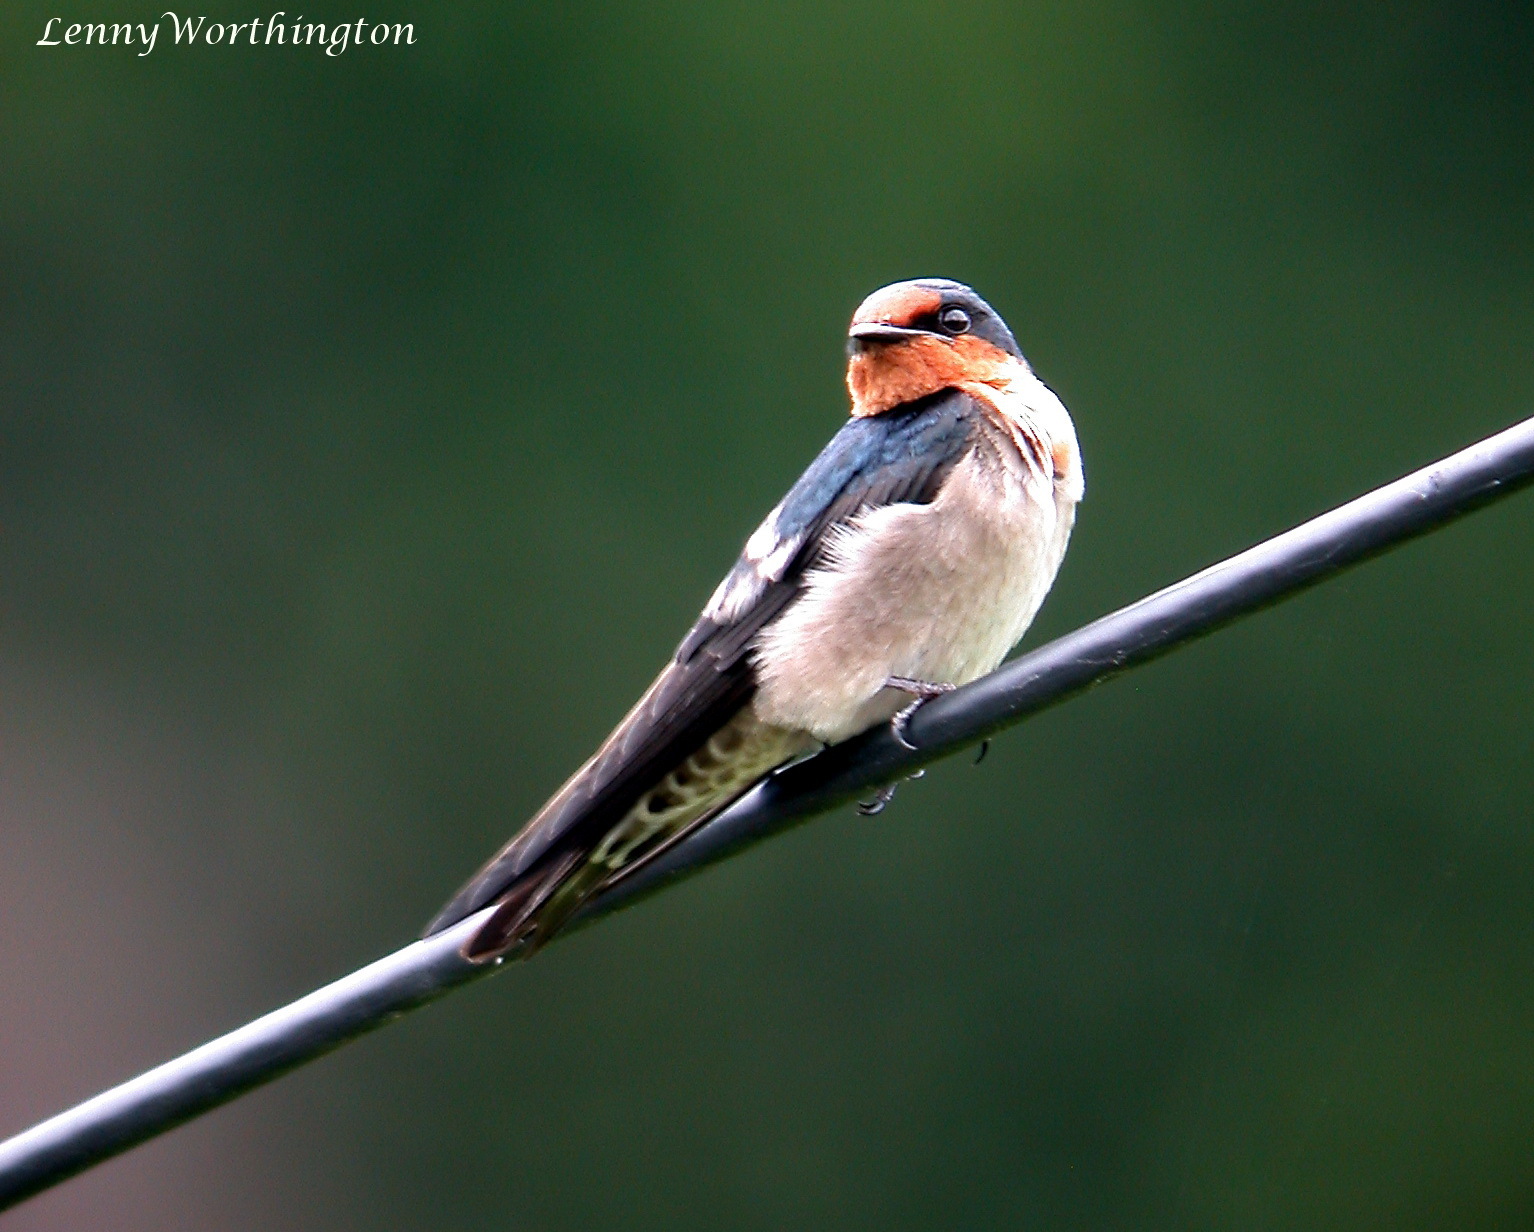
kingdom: Animalia
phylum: Chordata
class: Aves
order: Passeriformes
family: Hirundinidae
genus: Hirundo
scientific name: Hirundo tahitica
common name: Pacific swallow
